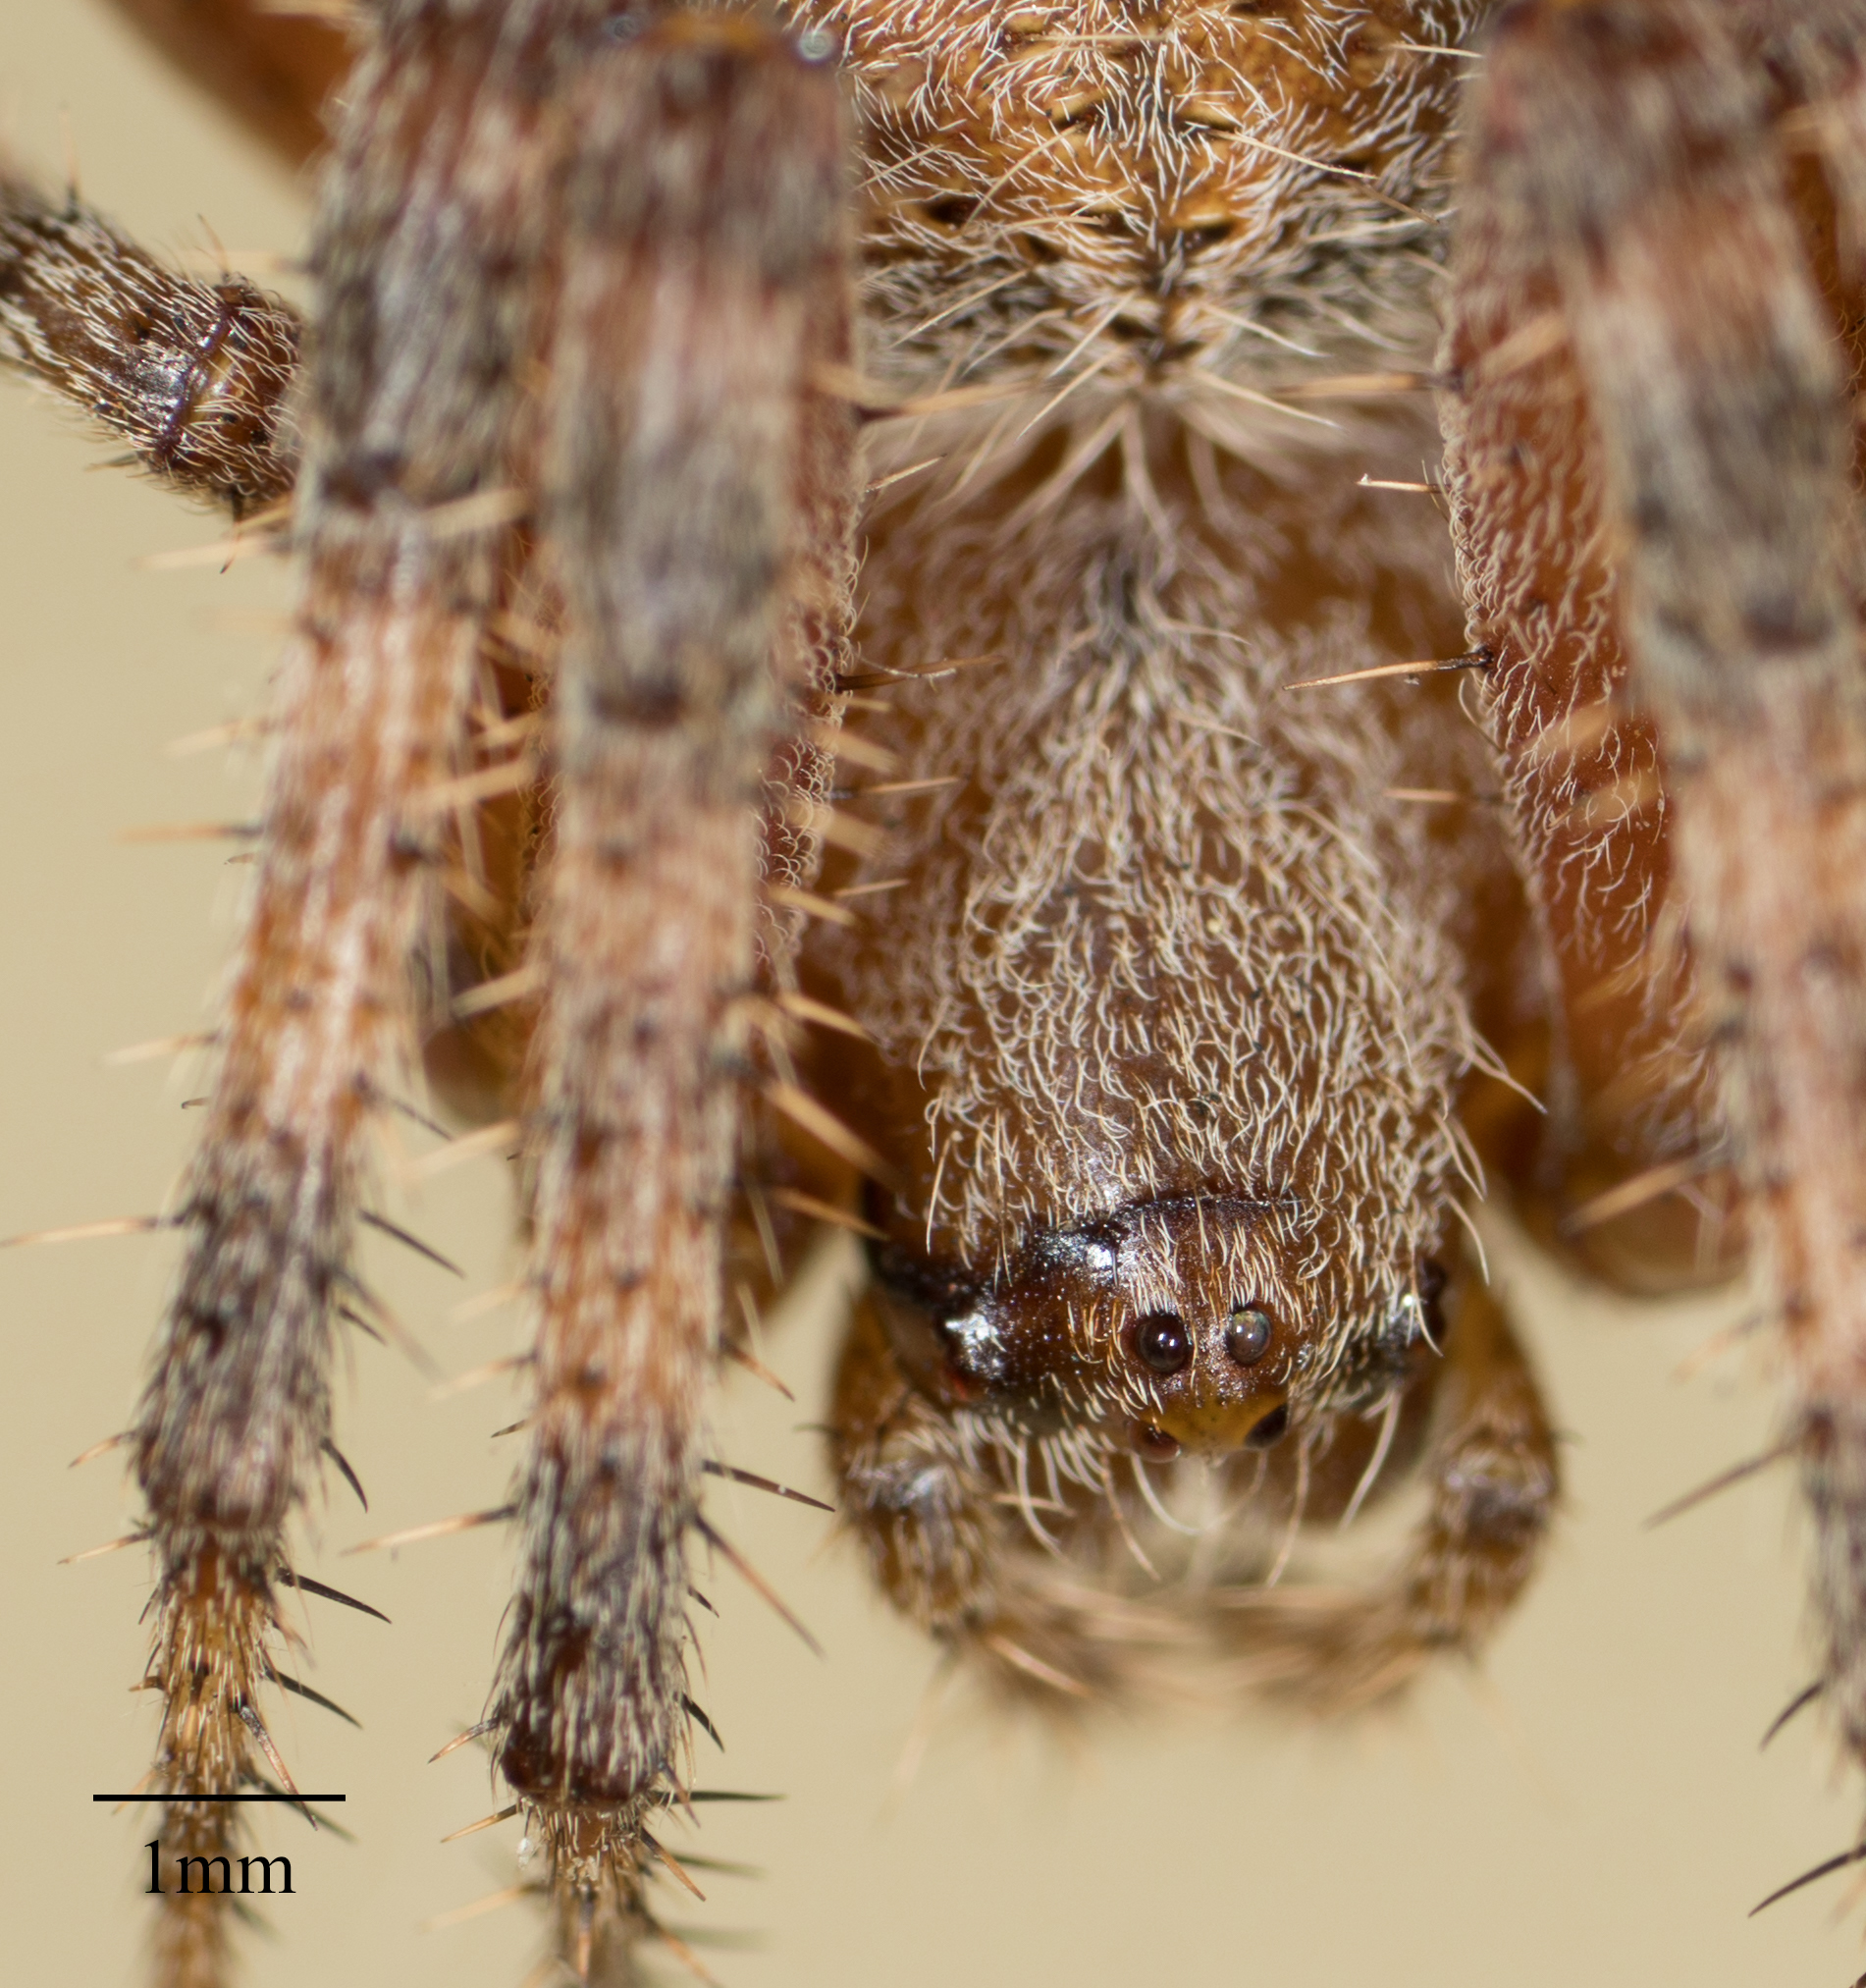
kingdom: Animalia
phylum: Arthropoda
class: Arachnida
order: Araneae
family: Araneidae
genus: Neoscona
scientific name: Neoscona crucifera
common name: Spotted orbweaver
